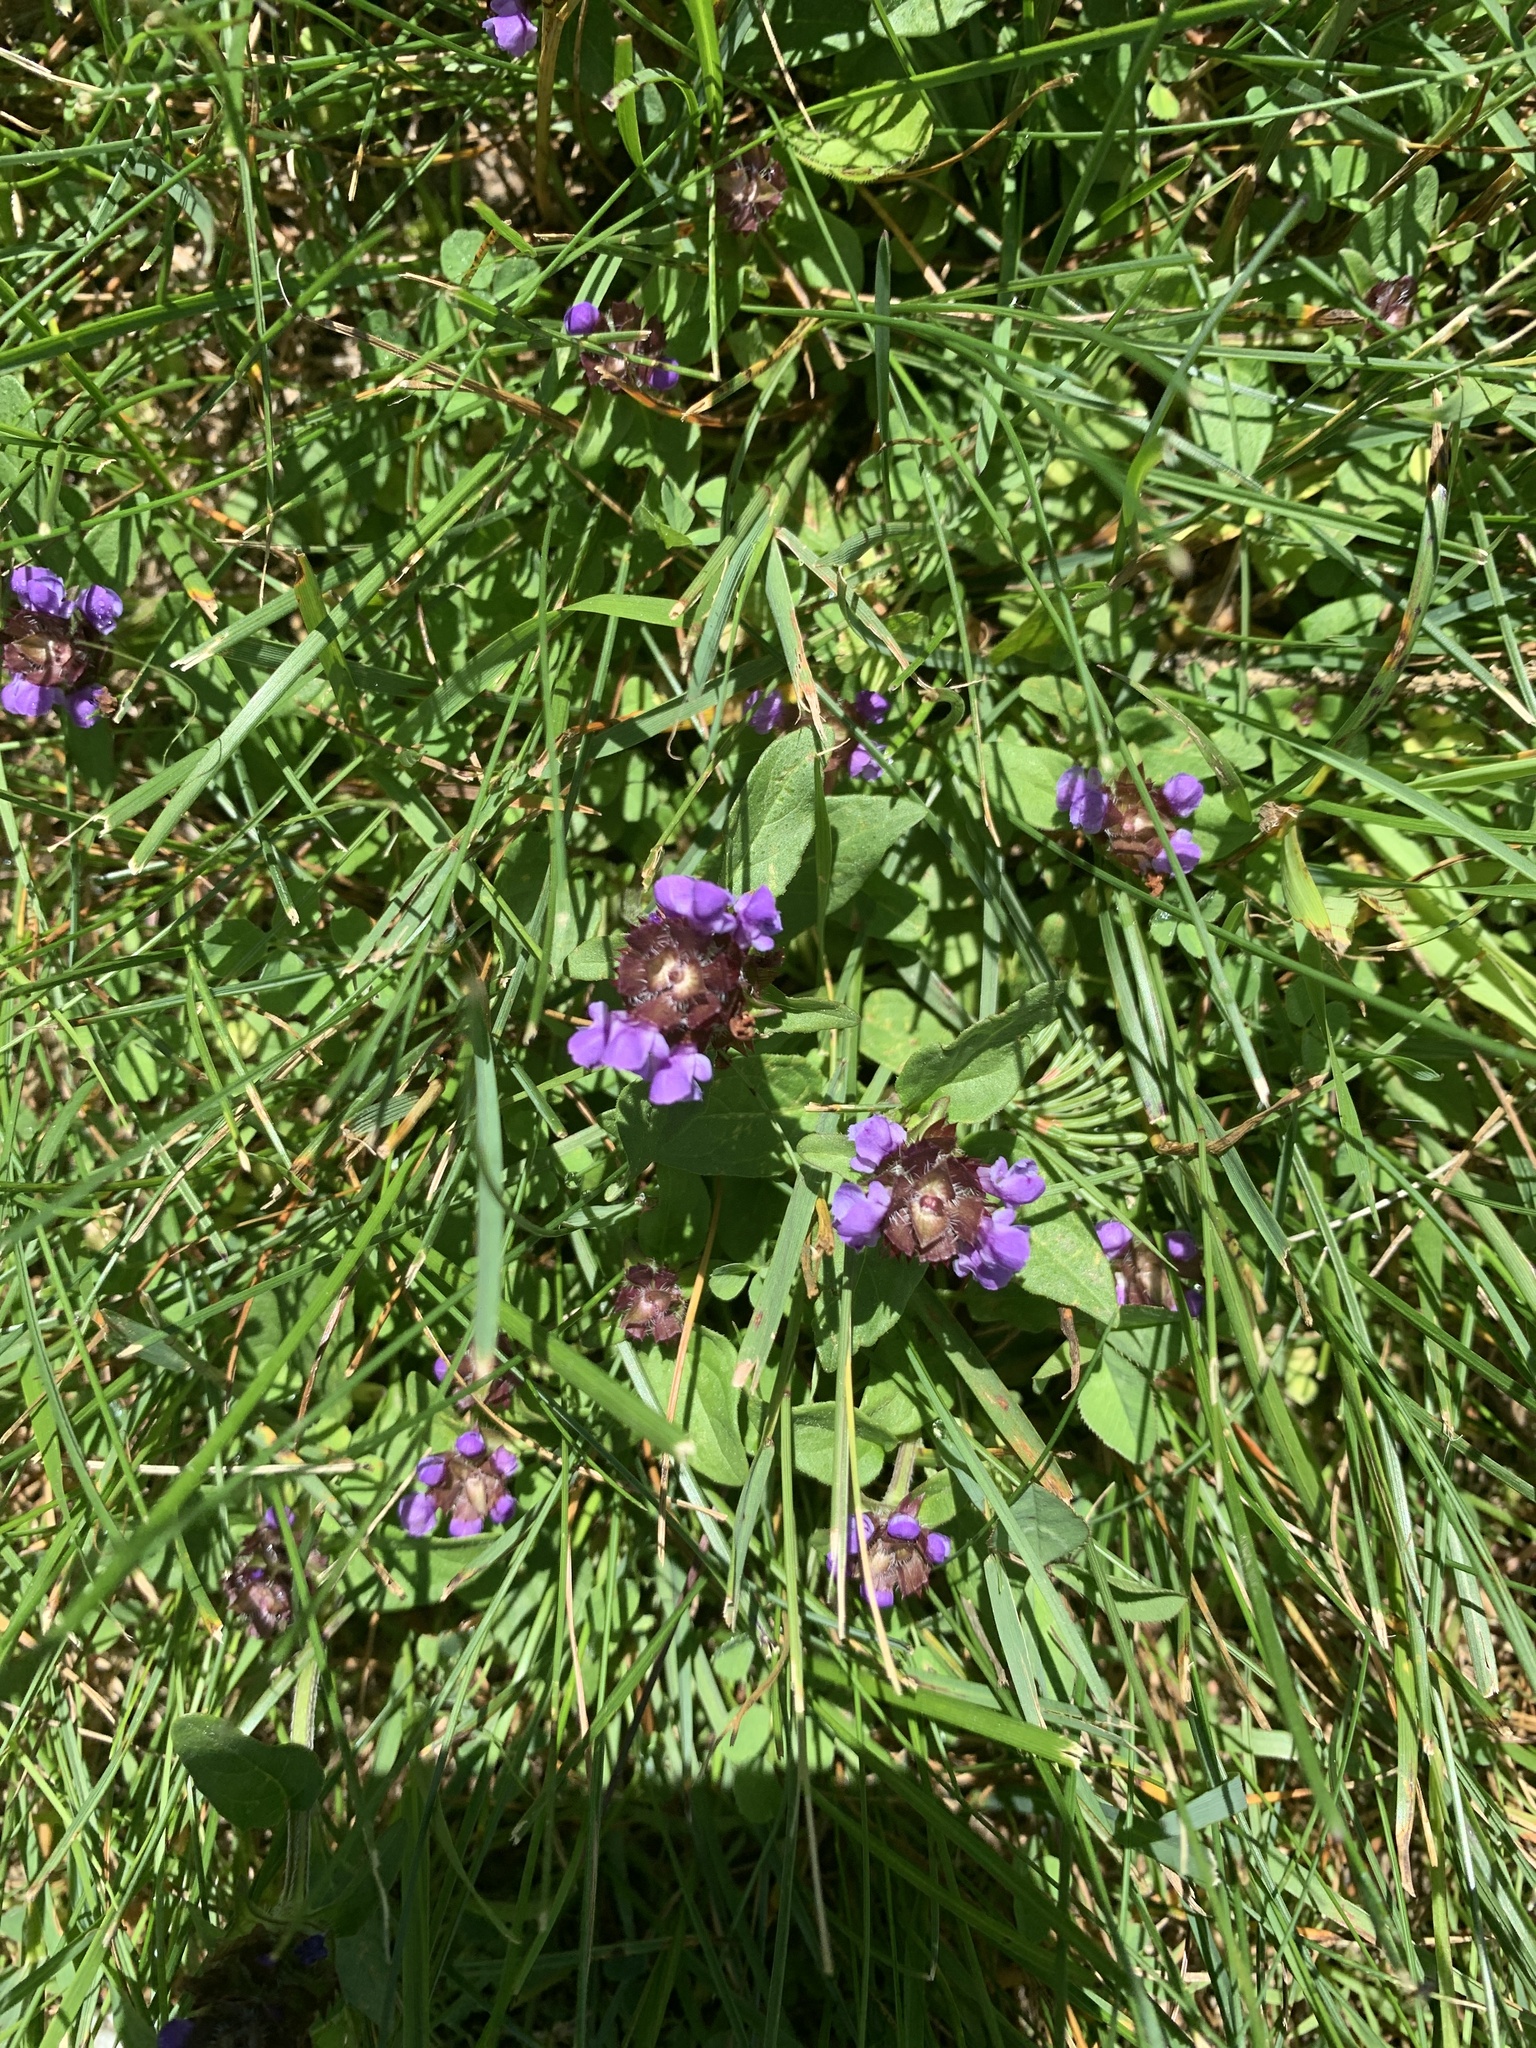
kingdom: Plantae
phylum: Tracheophyta
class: Magnoliopsida
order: Lamiales
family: Lamiaceae
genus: Prunella
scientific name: Prunella vulgaris
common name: Heal-all
